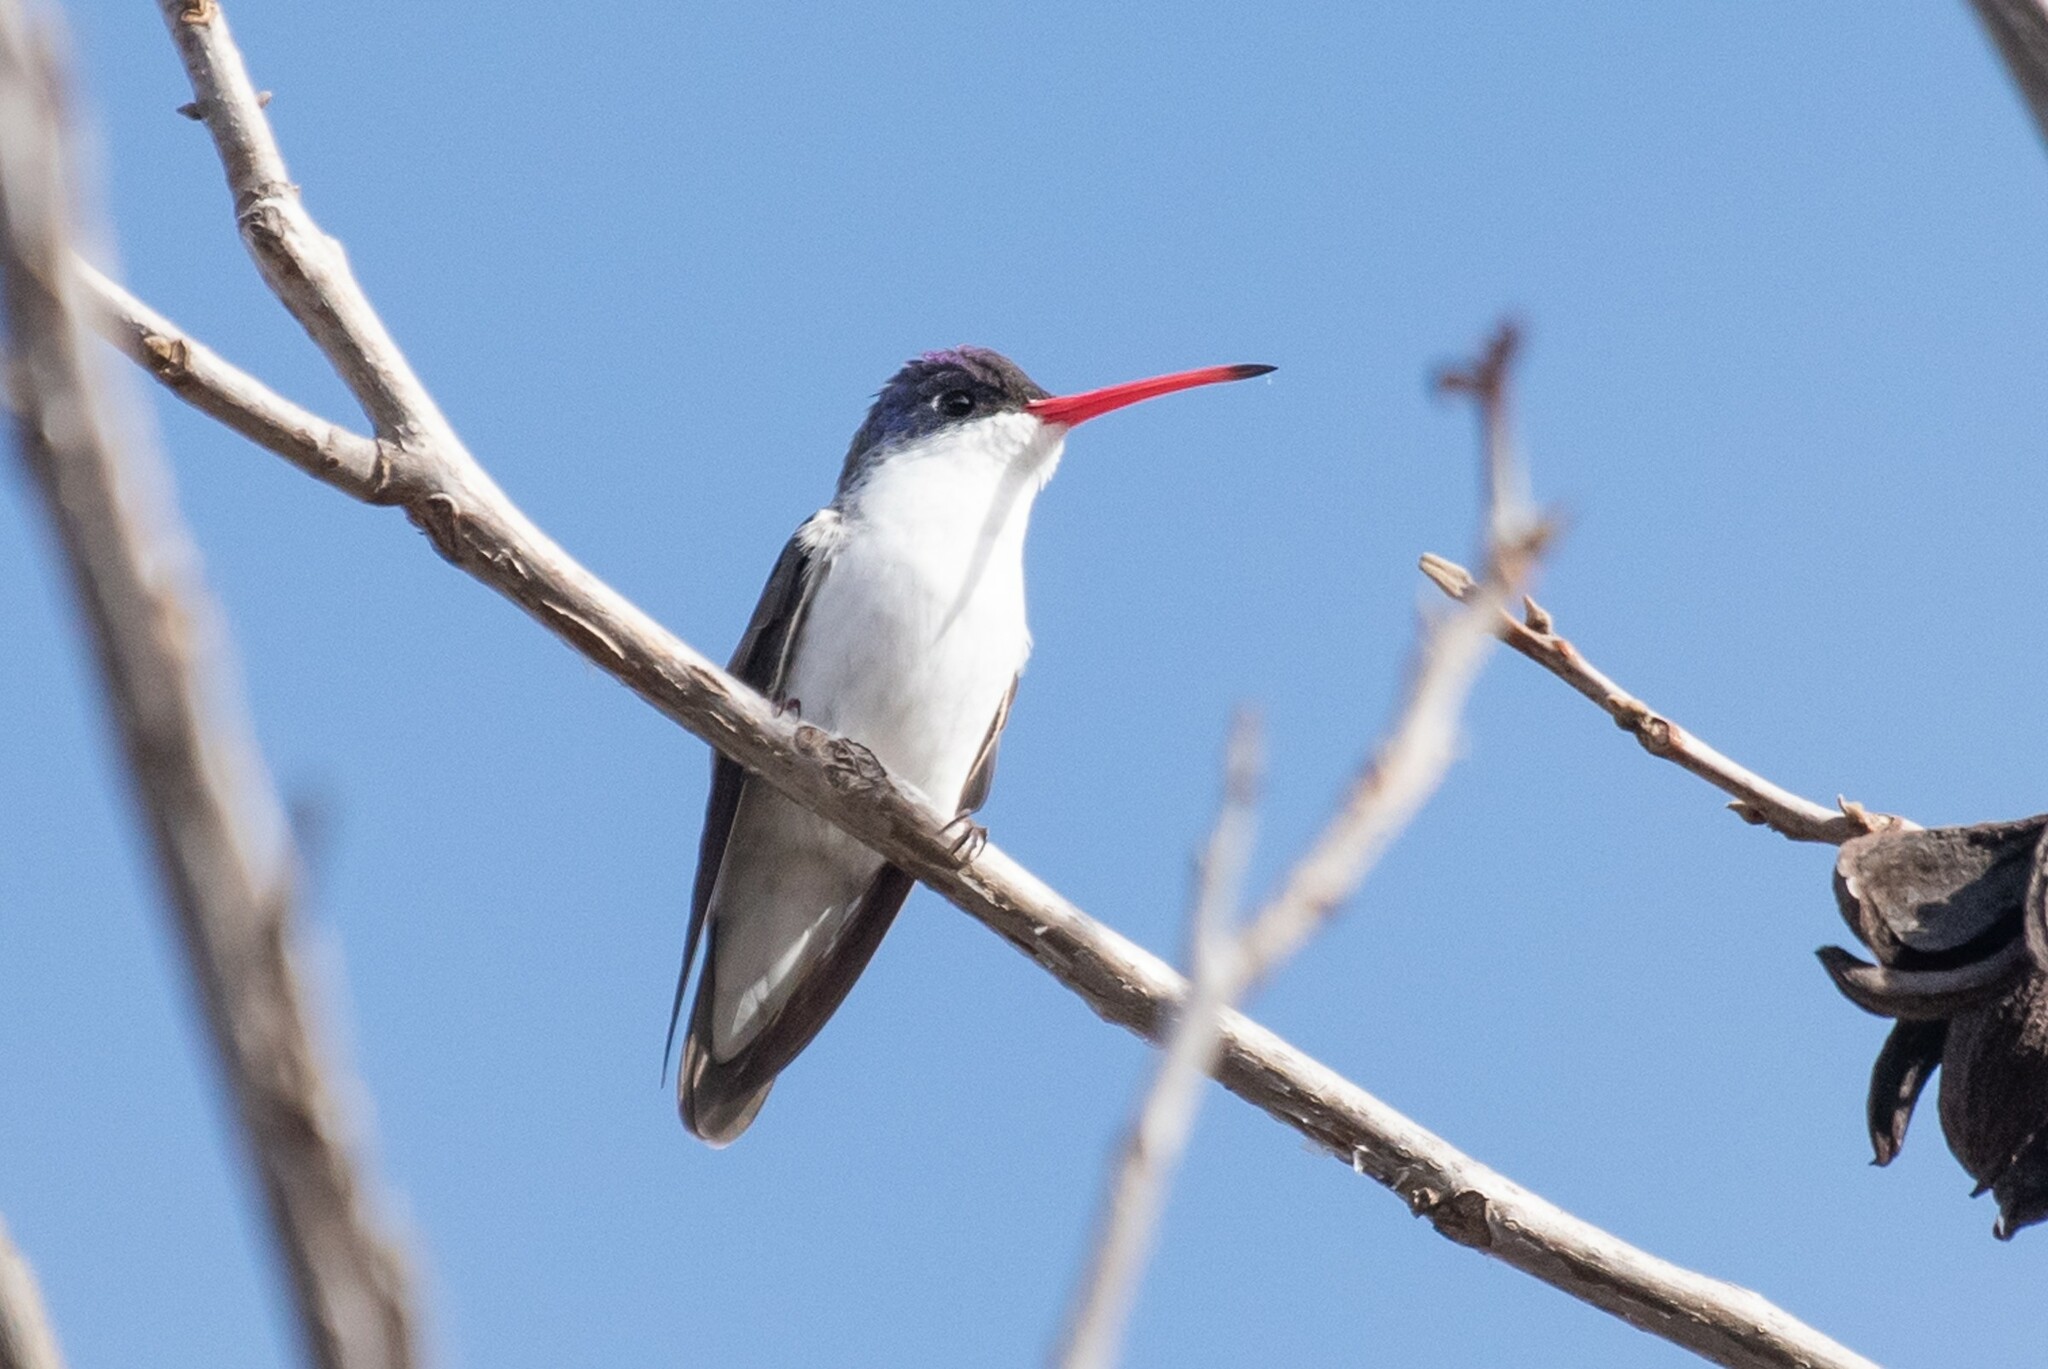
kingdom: Animalia
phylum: Chordata
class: Aves
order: Apodiformes
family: Trochilidae
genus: Leucolia
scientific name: Leucolia violiceps
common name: Violet-crowned hummingbird
